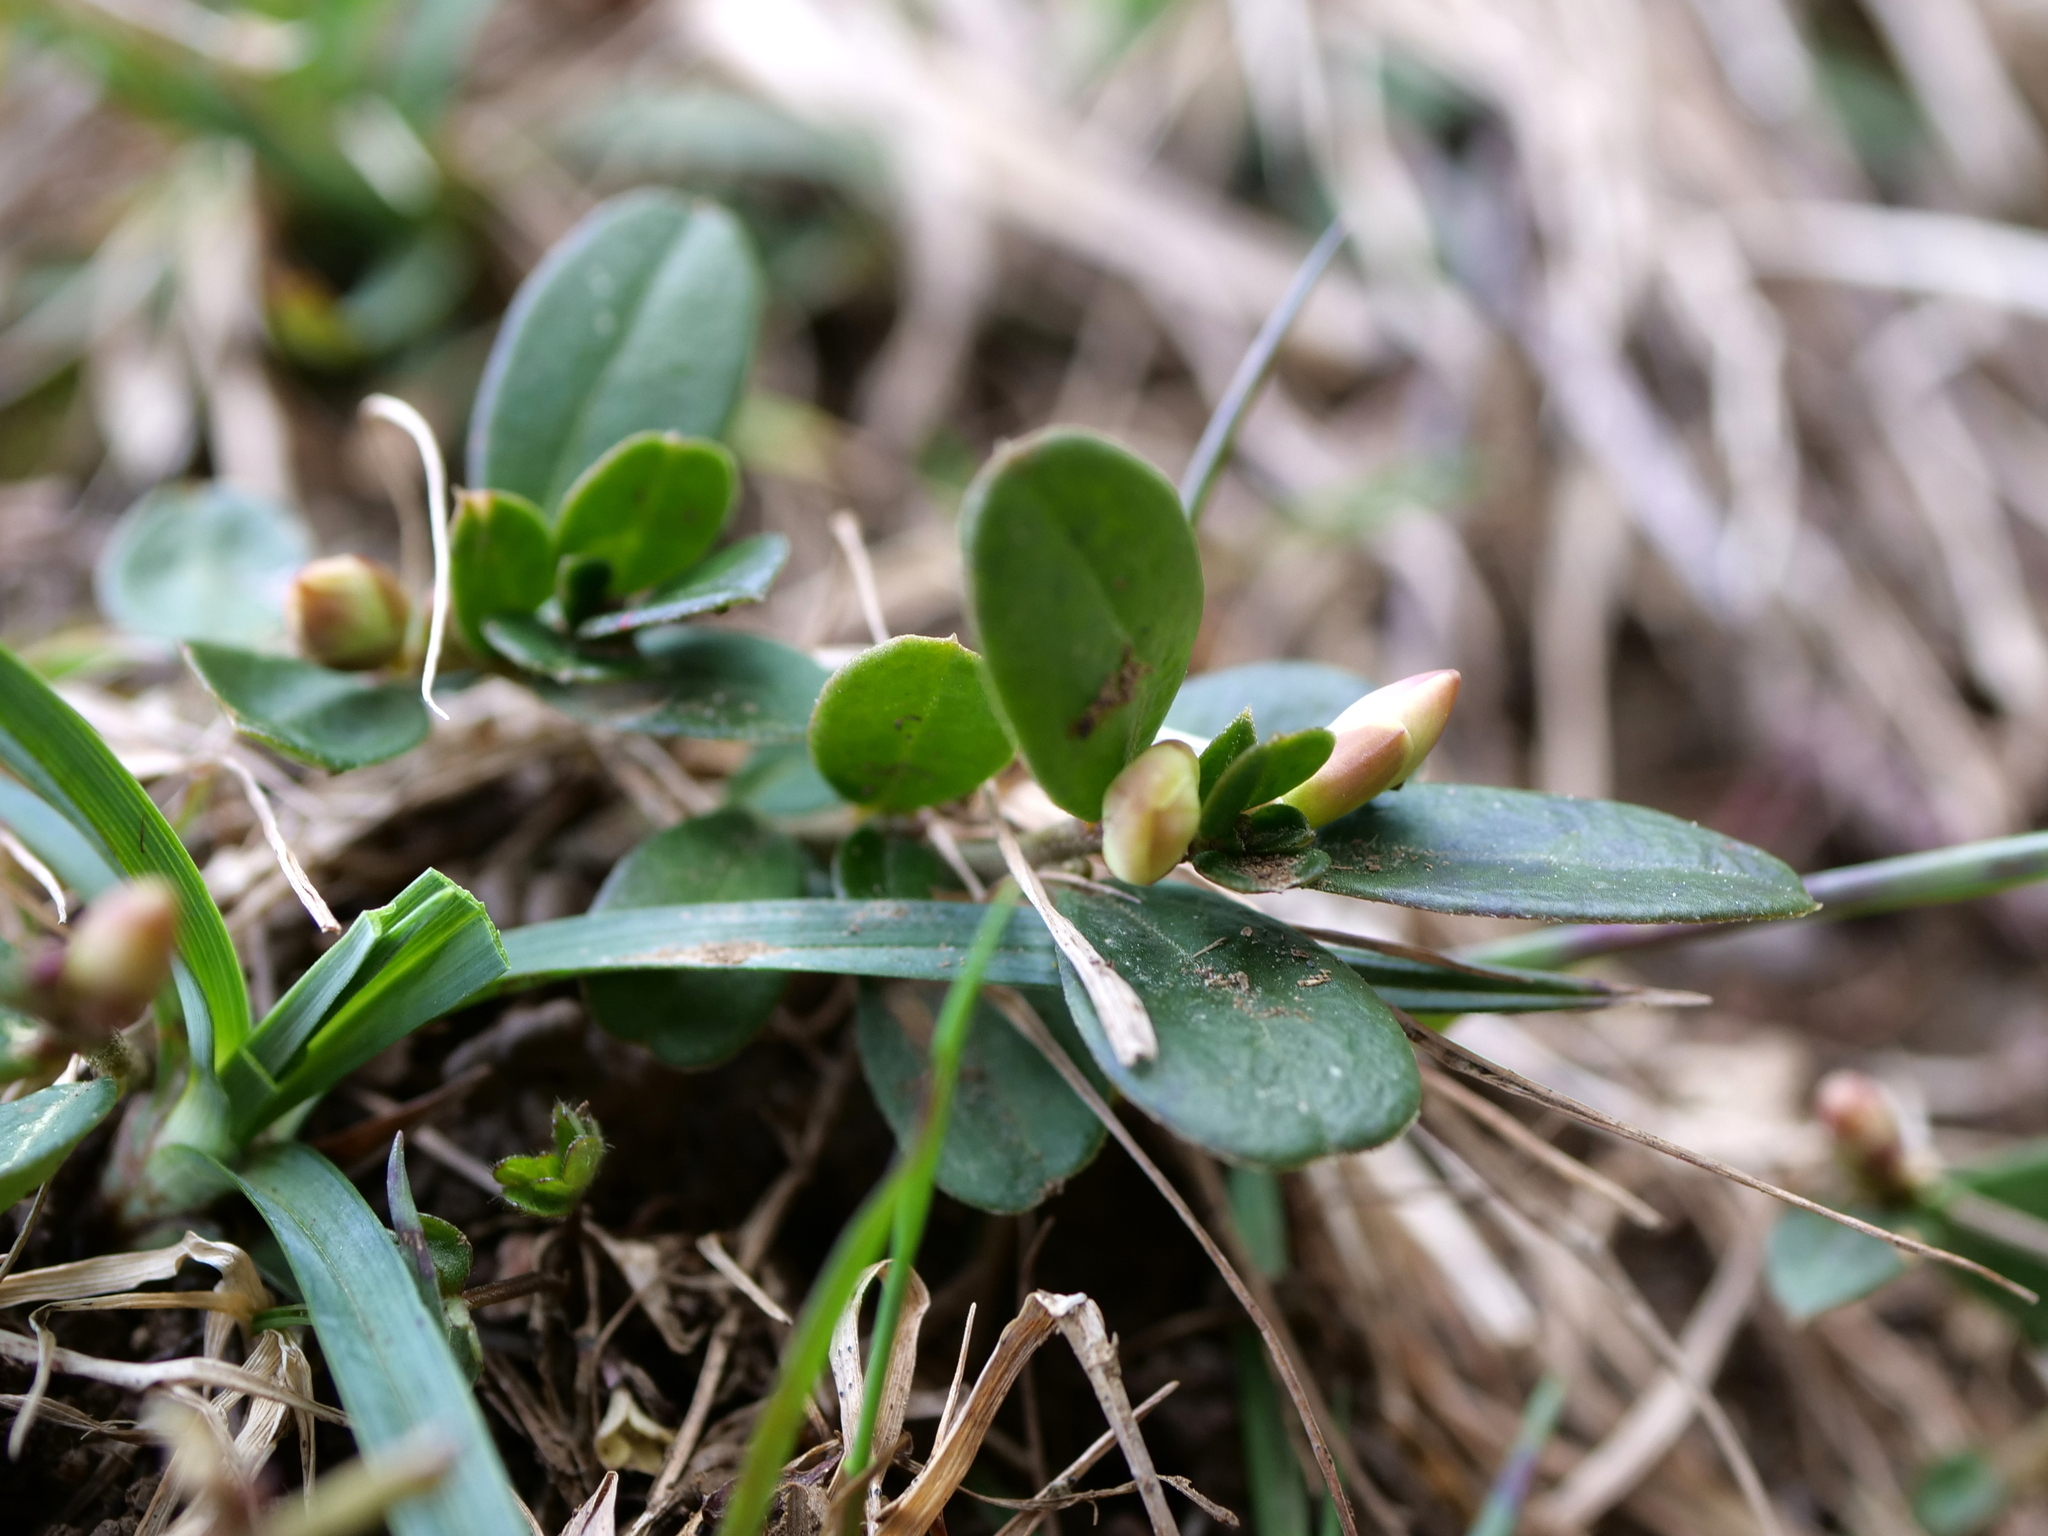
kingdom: Plantae
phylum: Tracheophyta
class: Magnoliopsida
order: Fabales
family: Polygalaceae
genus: Polygaloides
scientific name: Polygaloides chamaebuxus
